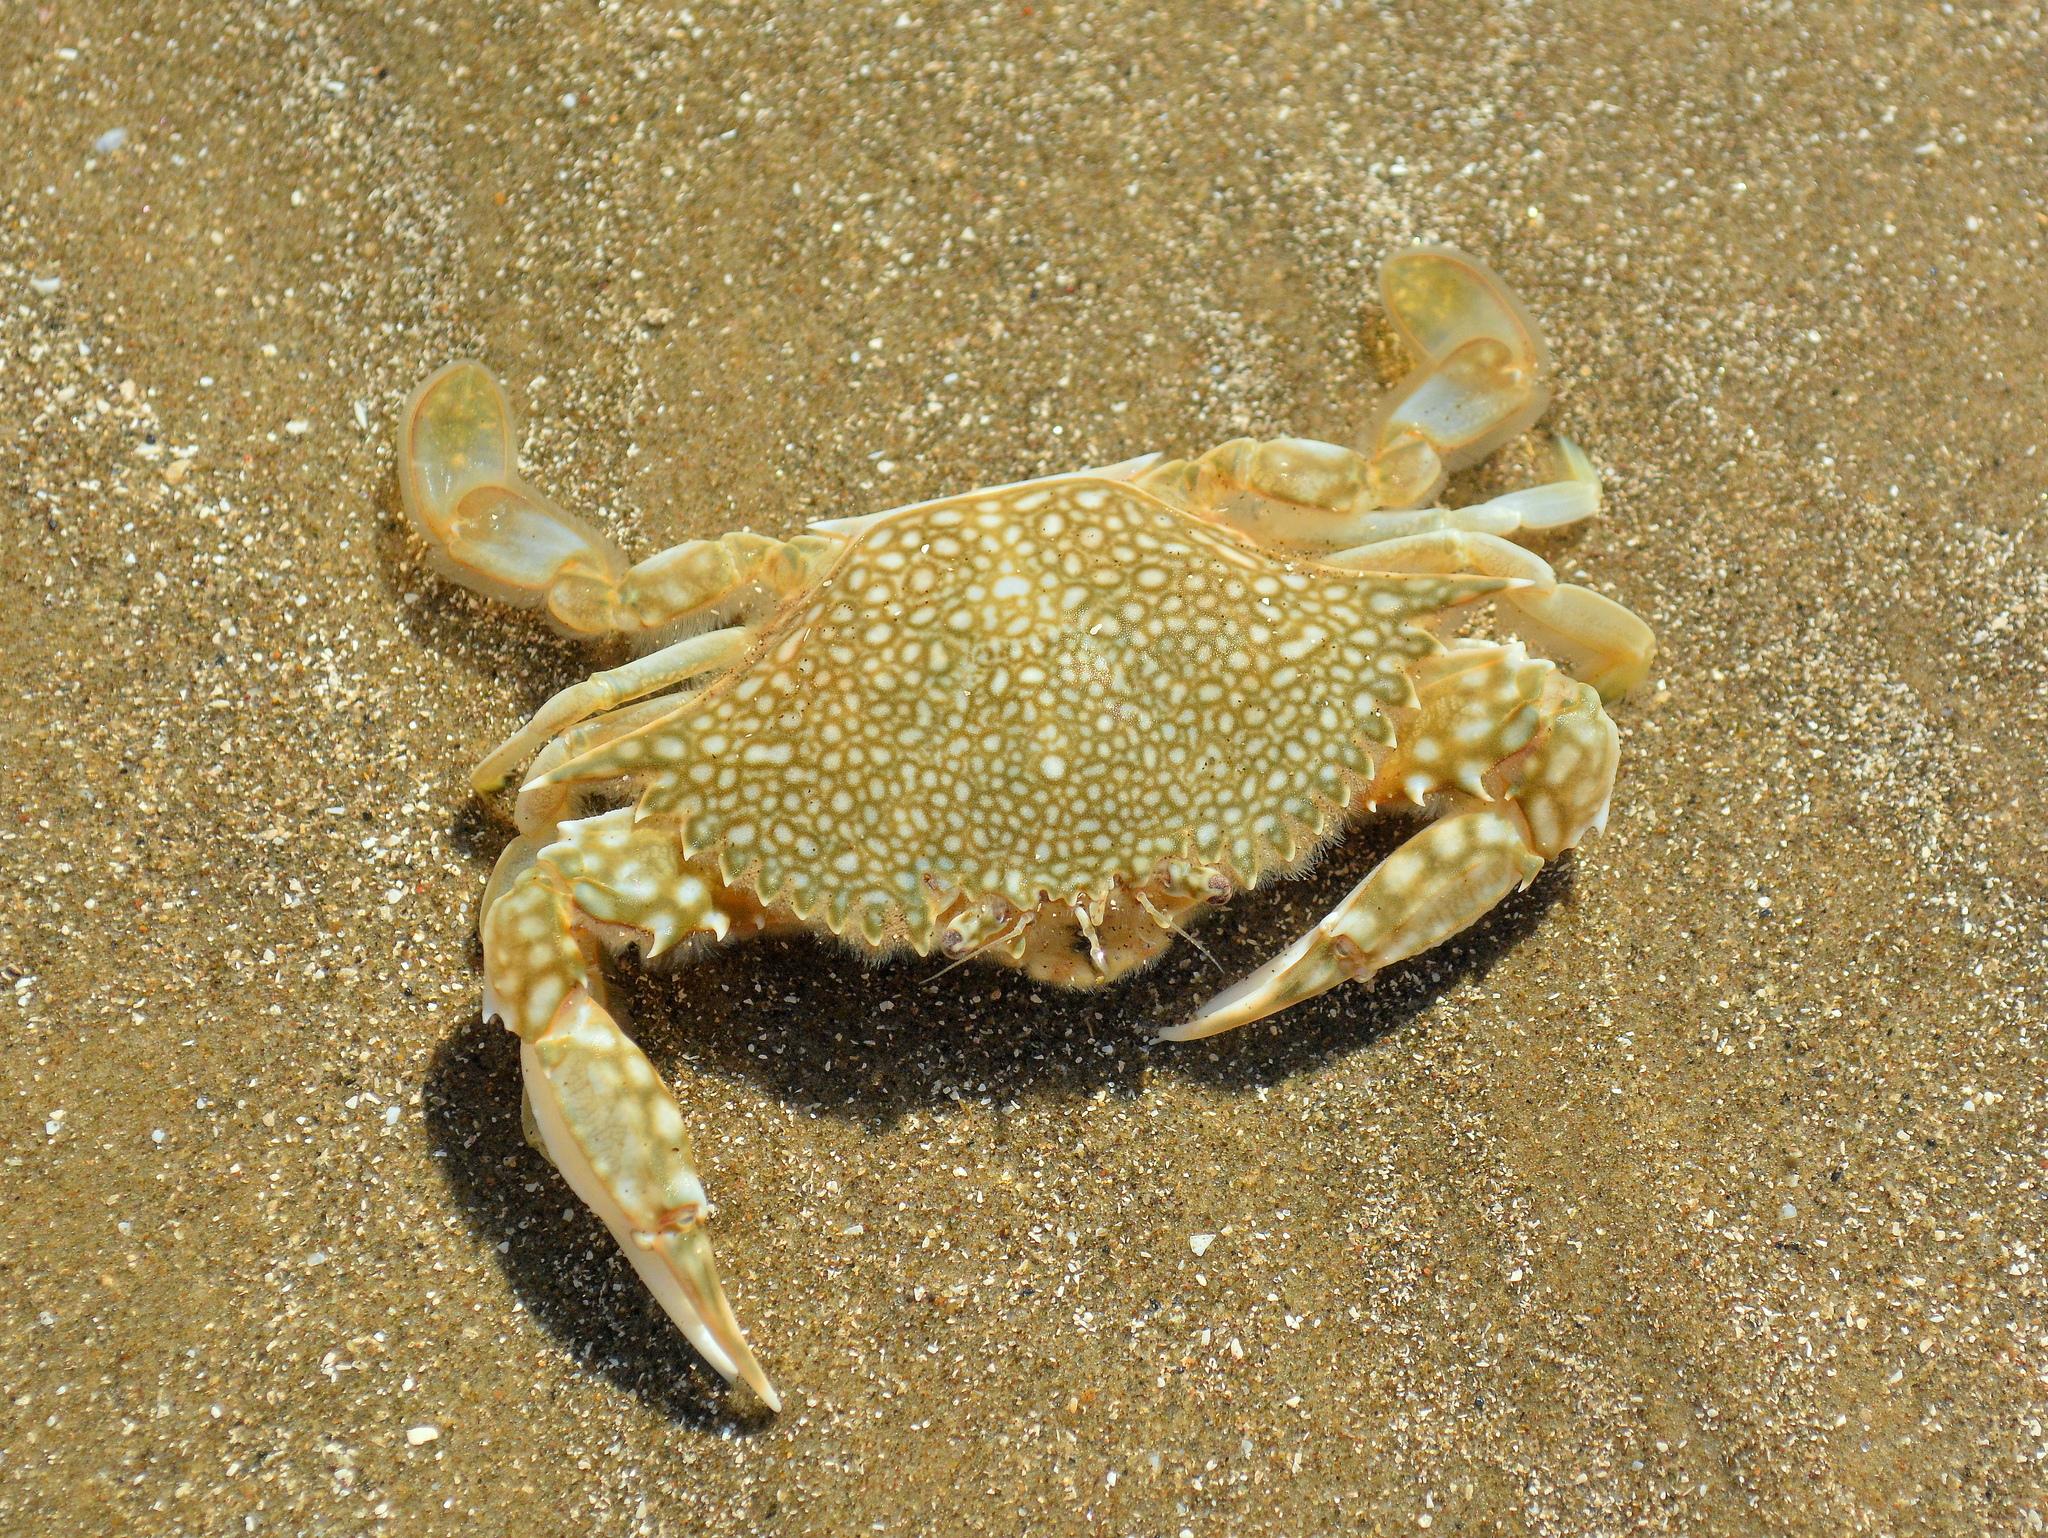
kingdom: Animalia
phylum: Arthropoda
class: Malacostraca
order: Decapoda
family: Portunidae
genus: Arenaeus
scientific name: Arenaeus cribrarius
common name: Speckled crab
